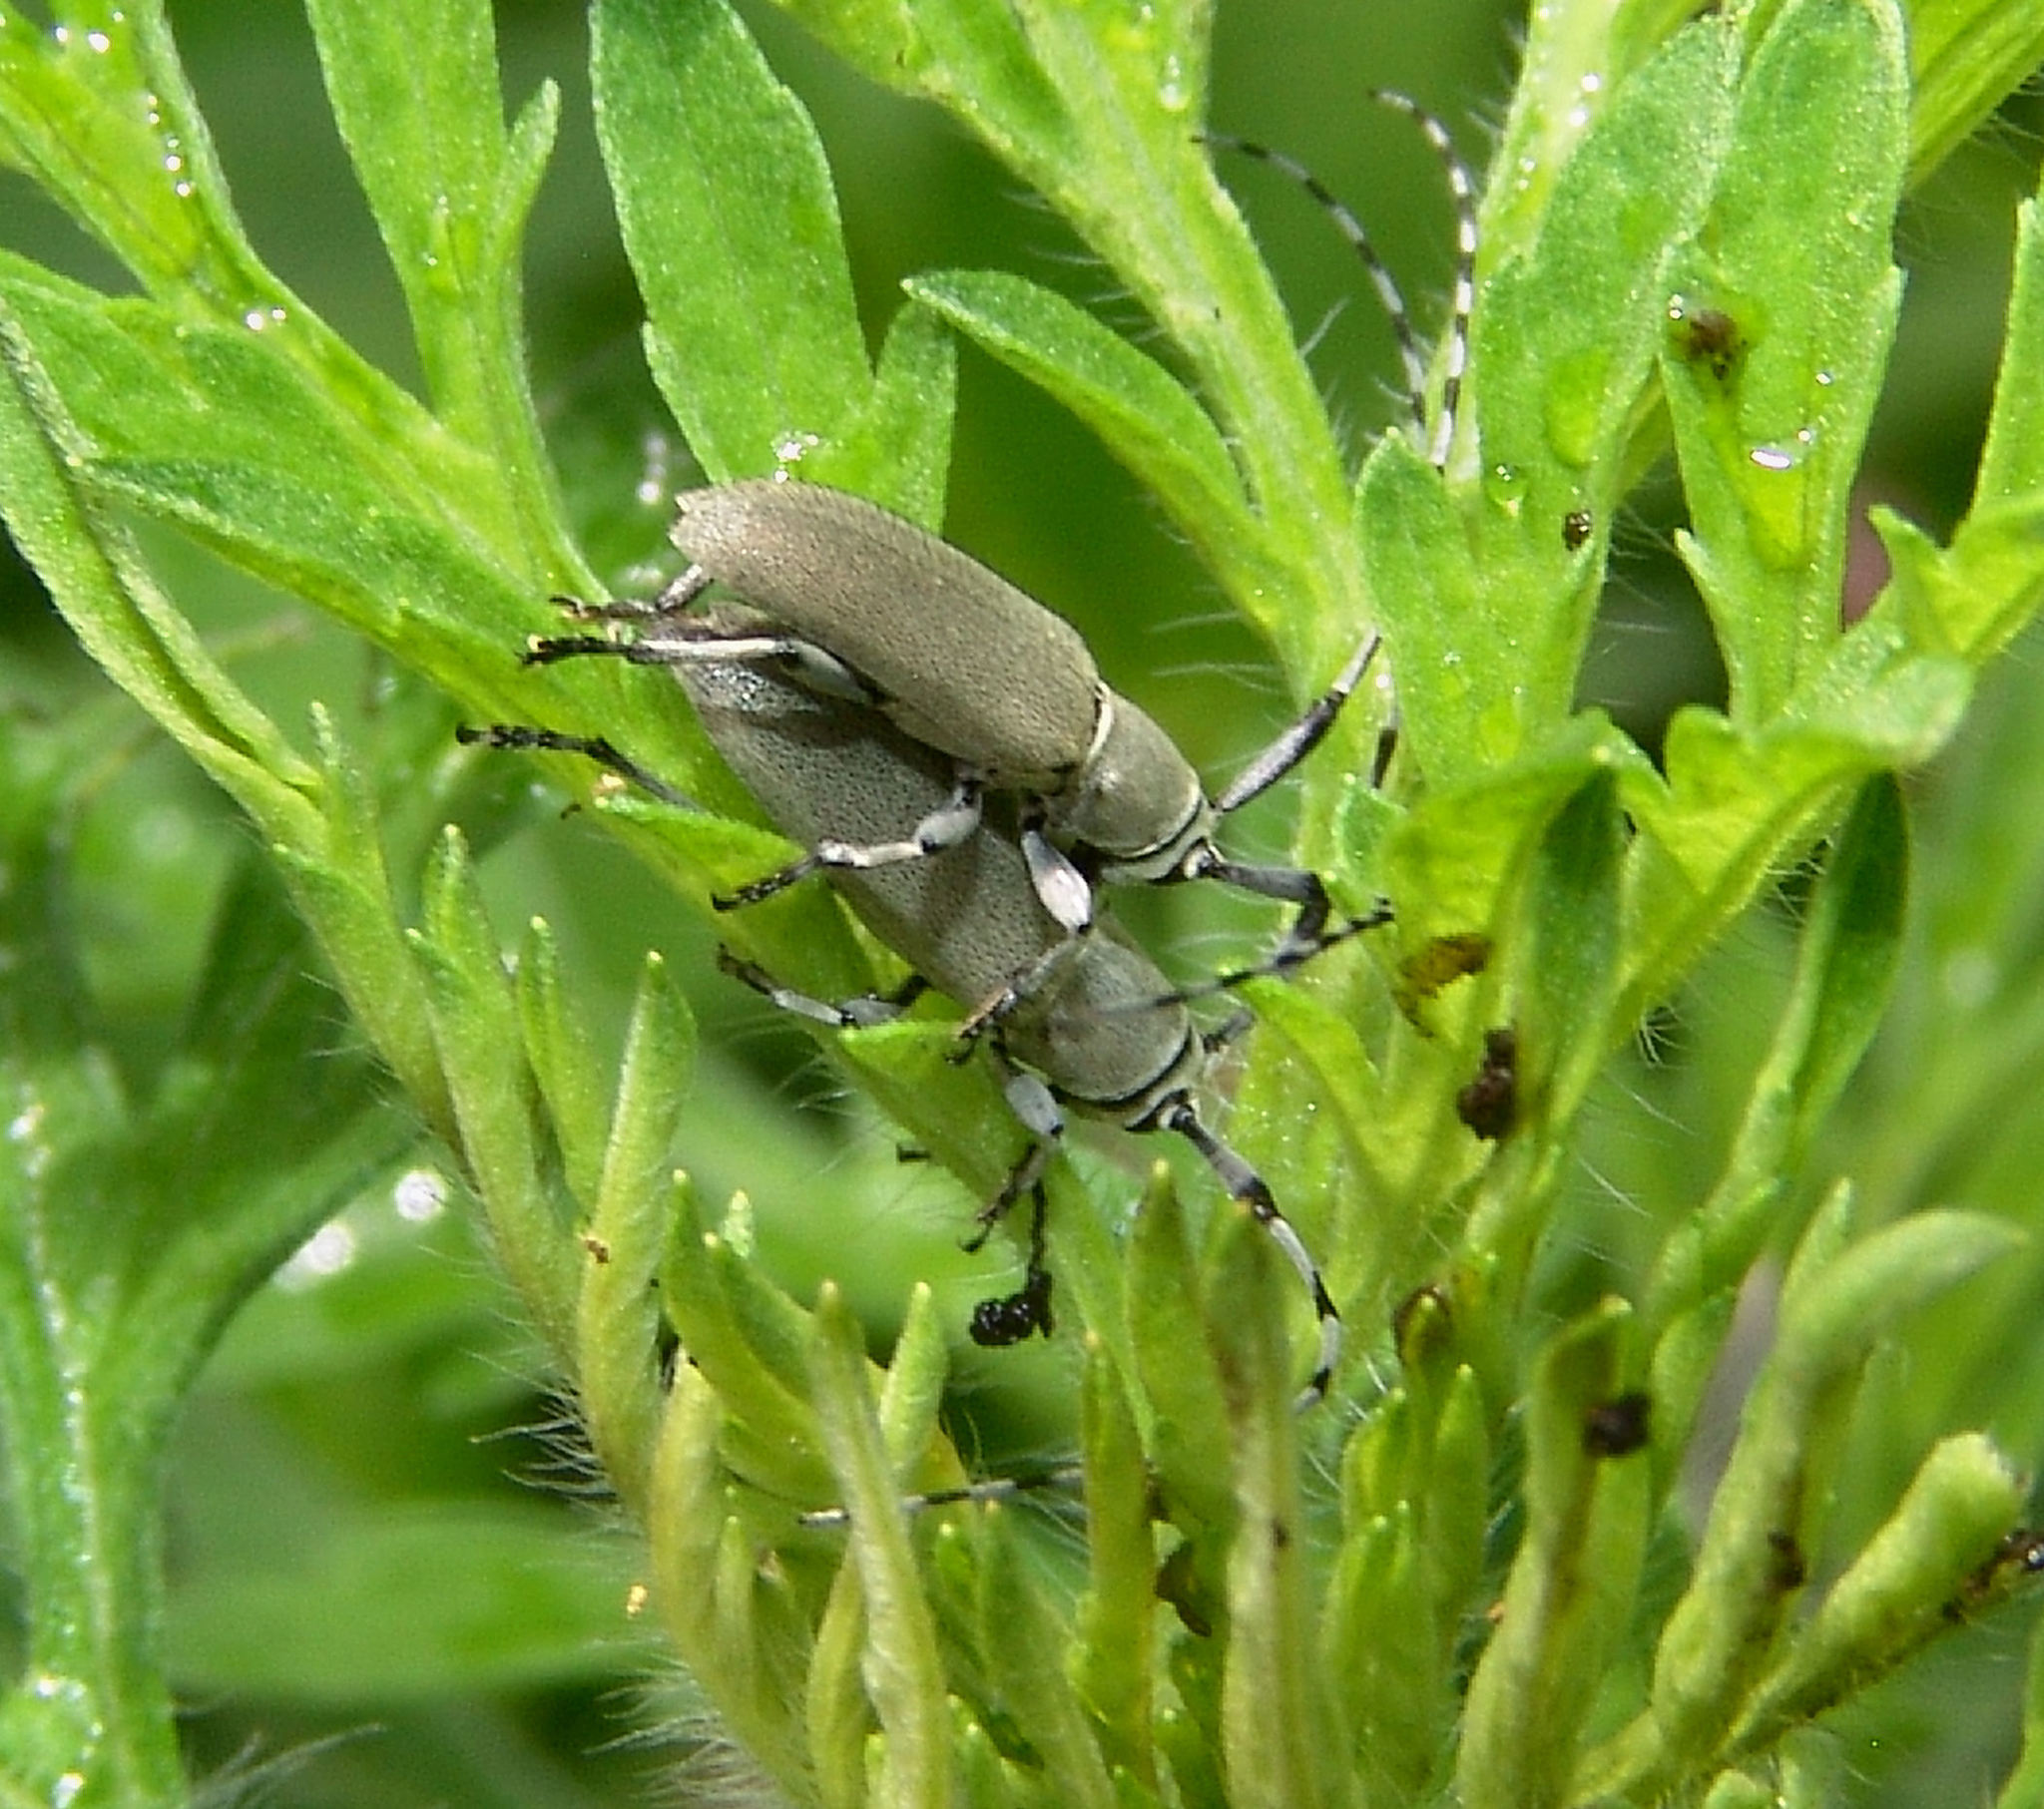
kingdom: Animalia
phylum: Arthropoda
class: Insecta
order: Coleoptera
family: Cerambycidae
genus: Dectes
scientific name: Dectes texanus
